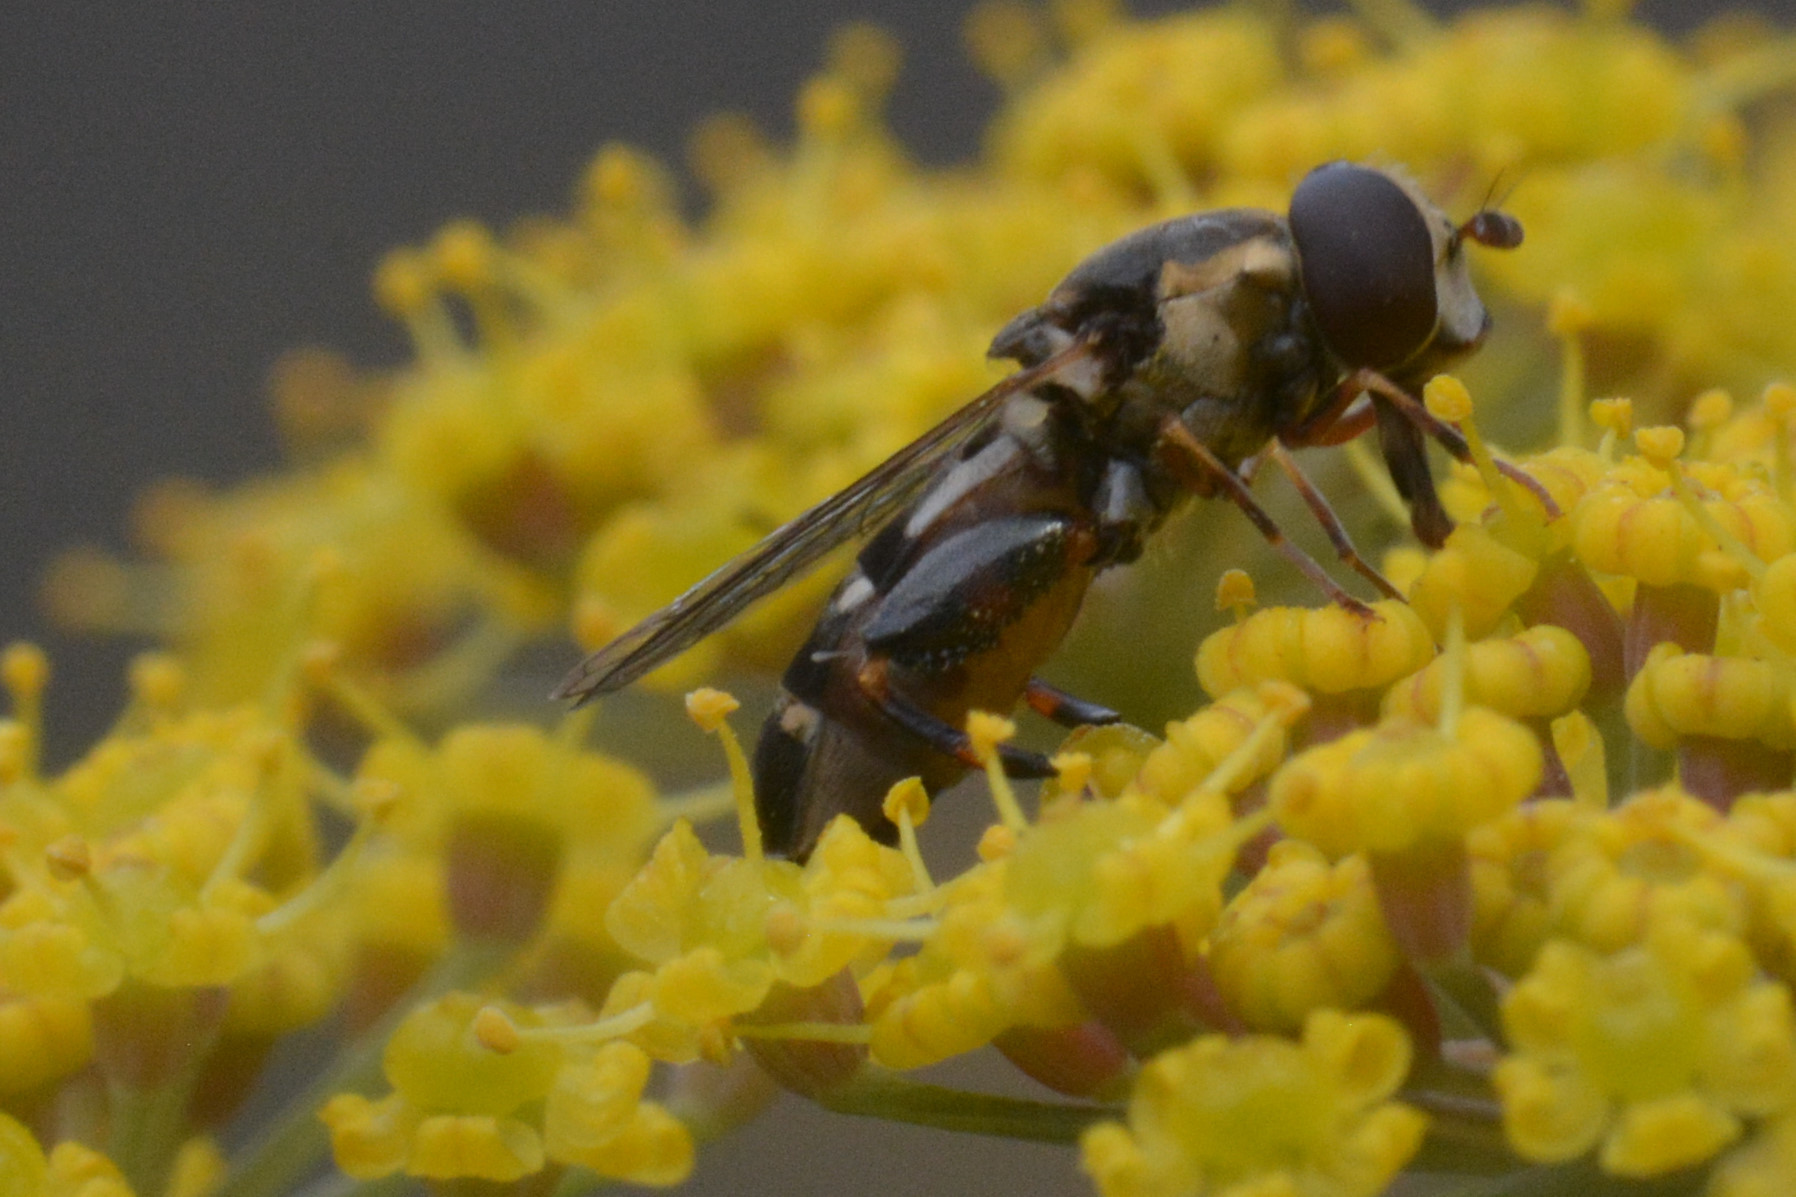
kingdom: Animalia
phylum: Arthropoda
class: Insecta
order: Diptera
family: Syrphidae
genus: Syritta
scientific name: Syritta pipiens
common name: Hover fly
